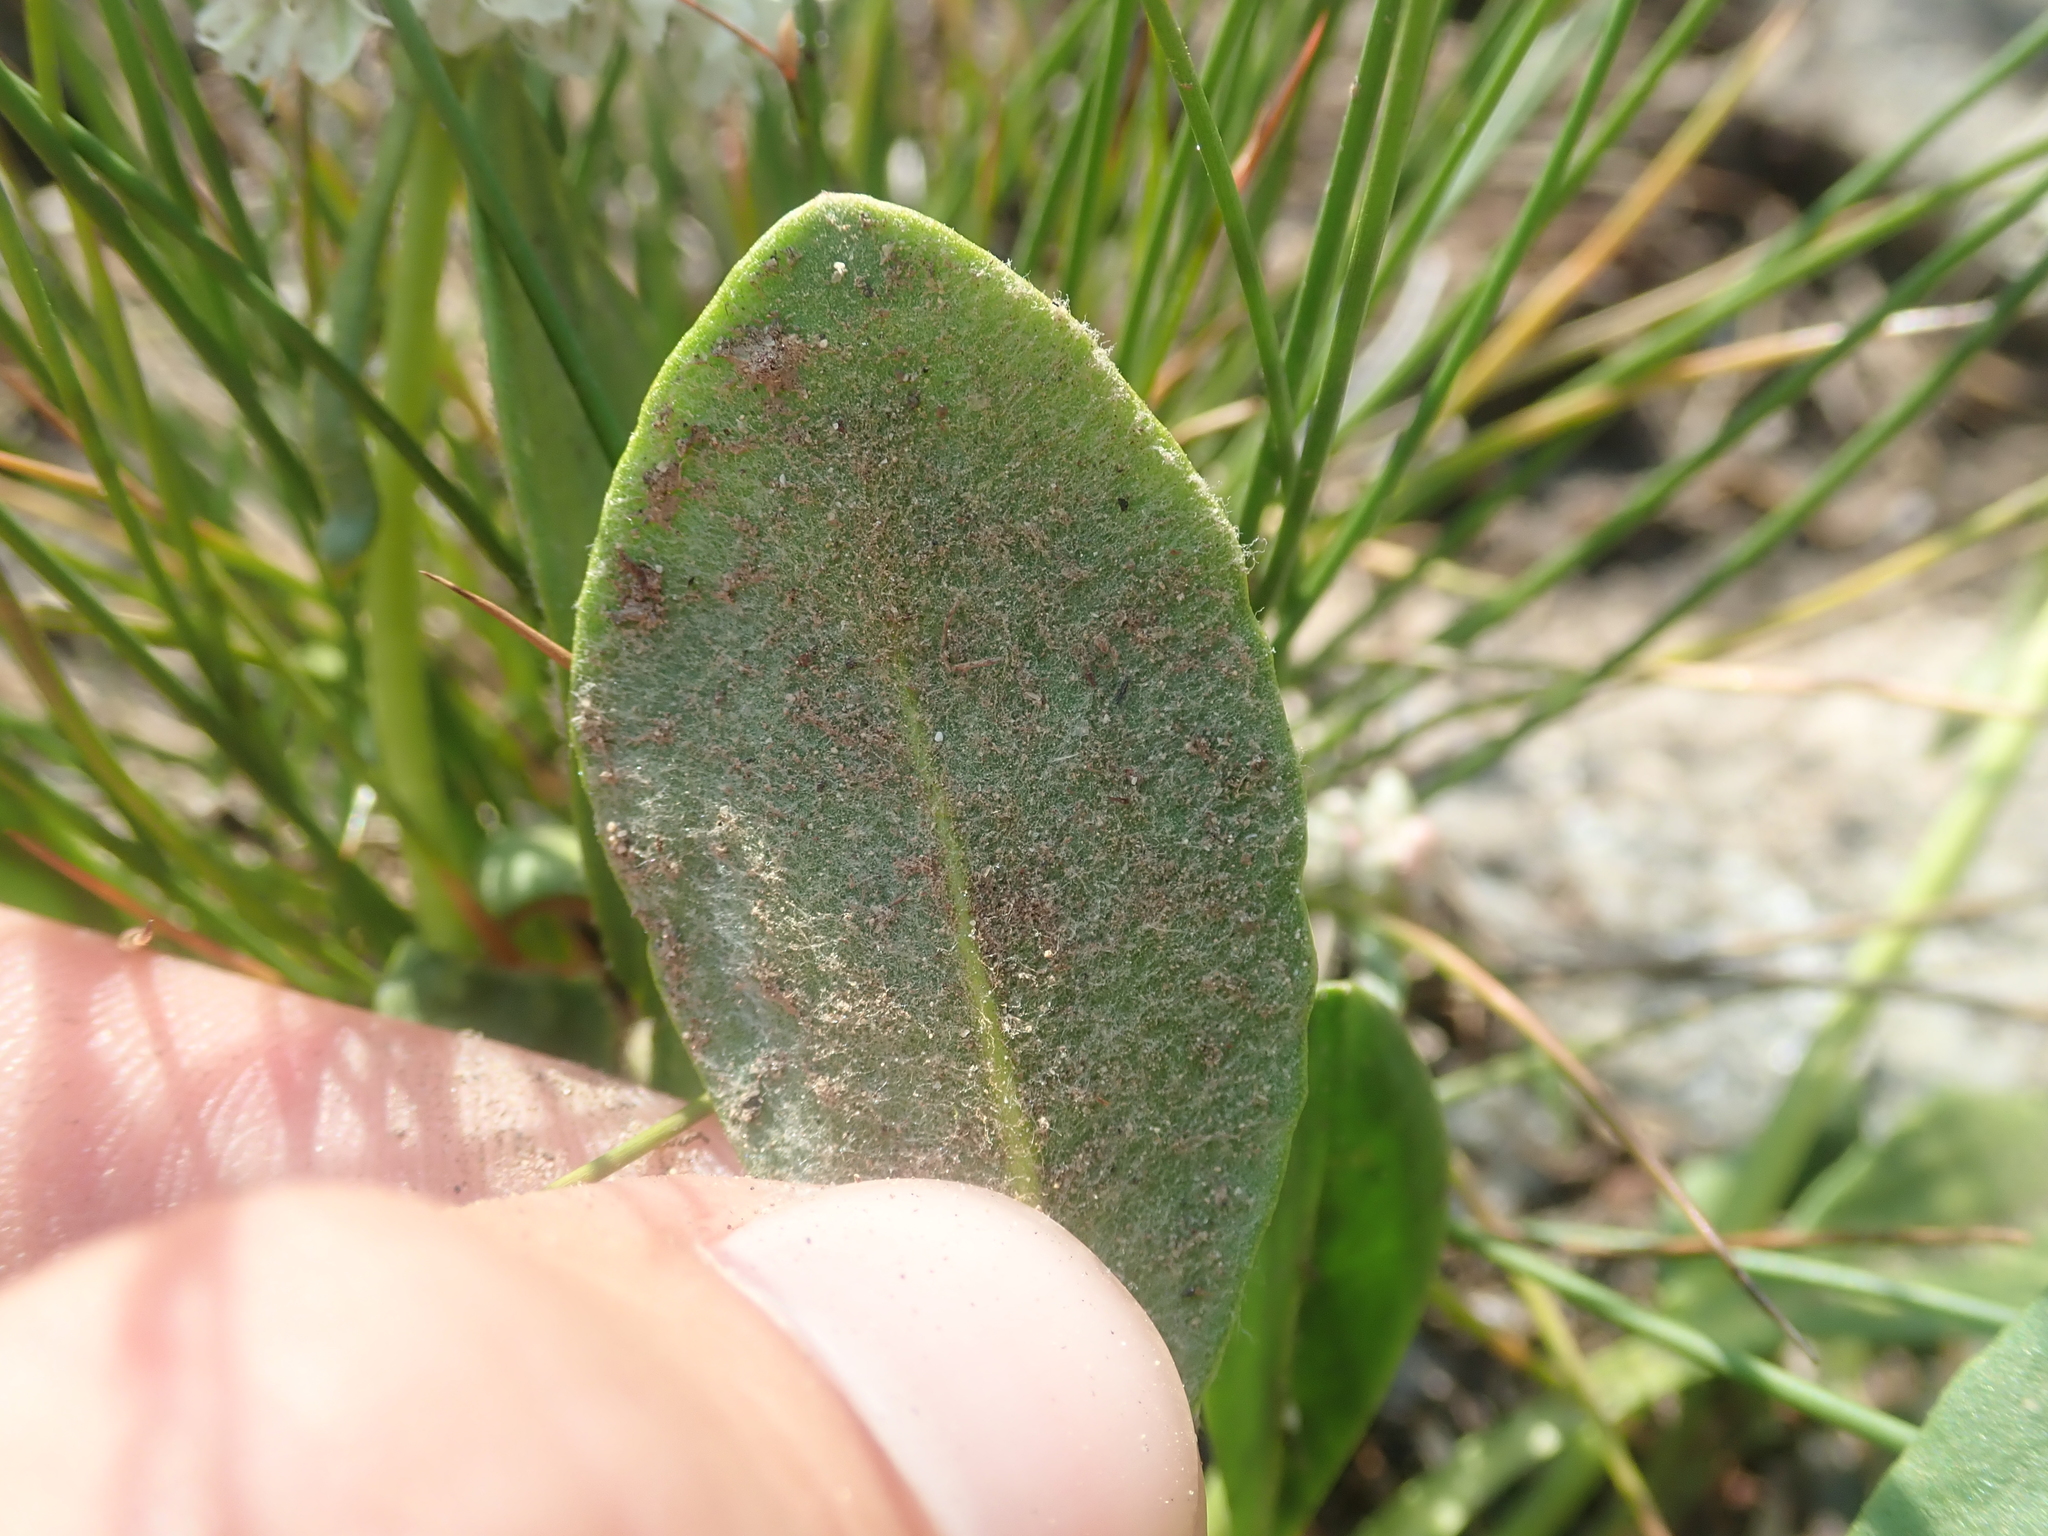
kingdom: Plantae
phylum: Tracheophyta
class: Magnoliopsida
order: Caryophyllales
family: Polygonaceae
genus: Eriogonum
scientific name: Eriogonum pyrolifolium
